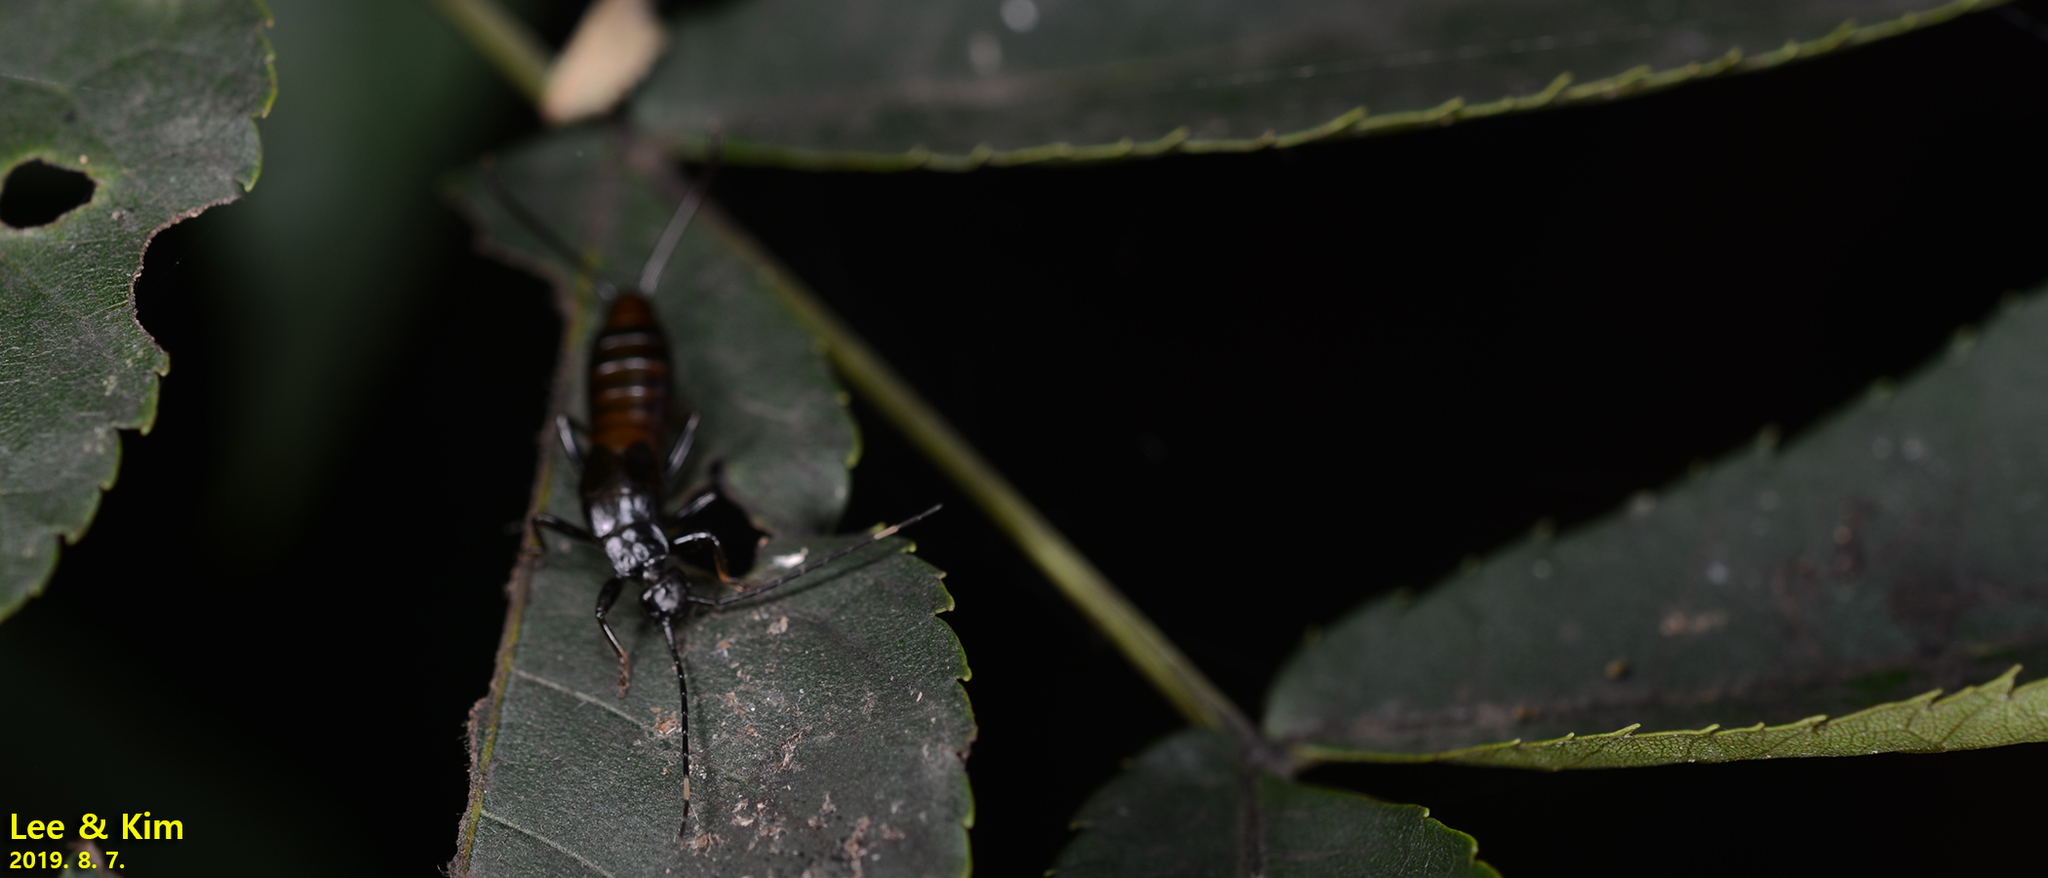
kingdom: Animalia
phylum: Arthropoda
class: Insecta
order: Dermaptera
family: Forficulidae
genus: Timomenus
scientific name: Timomenus komarovi
